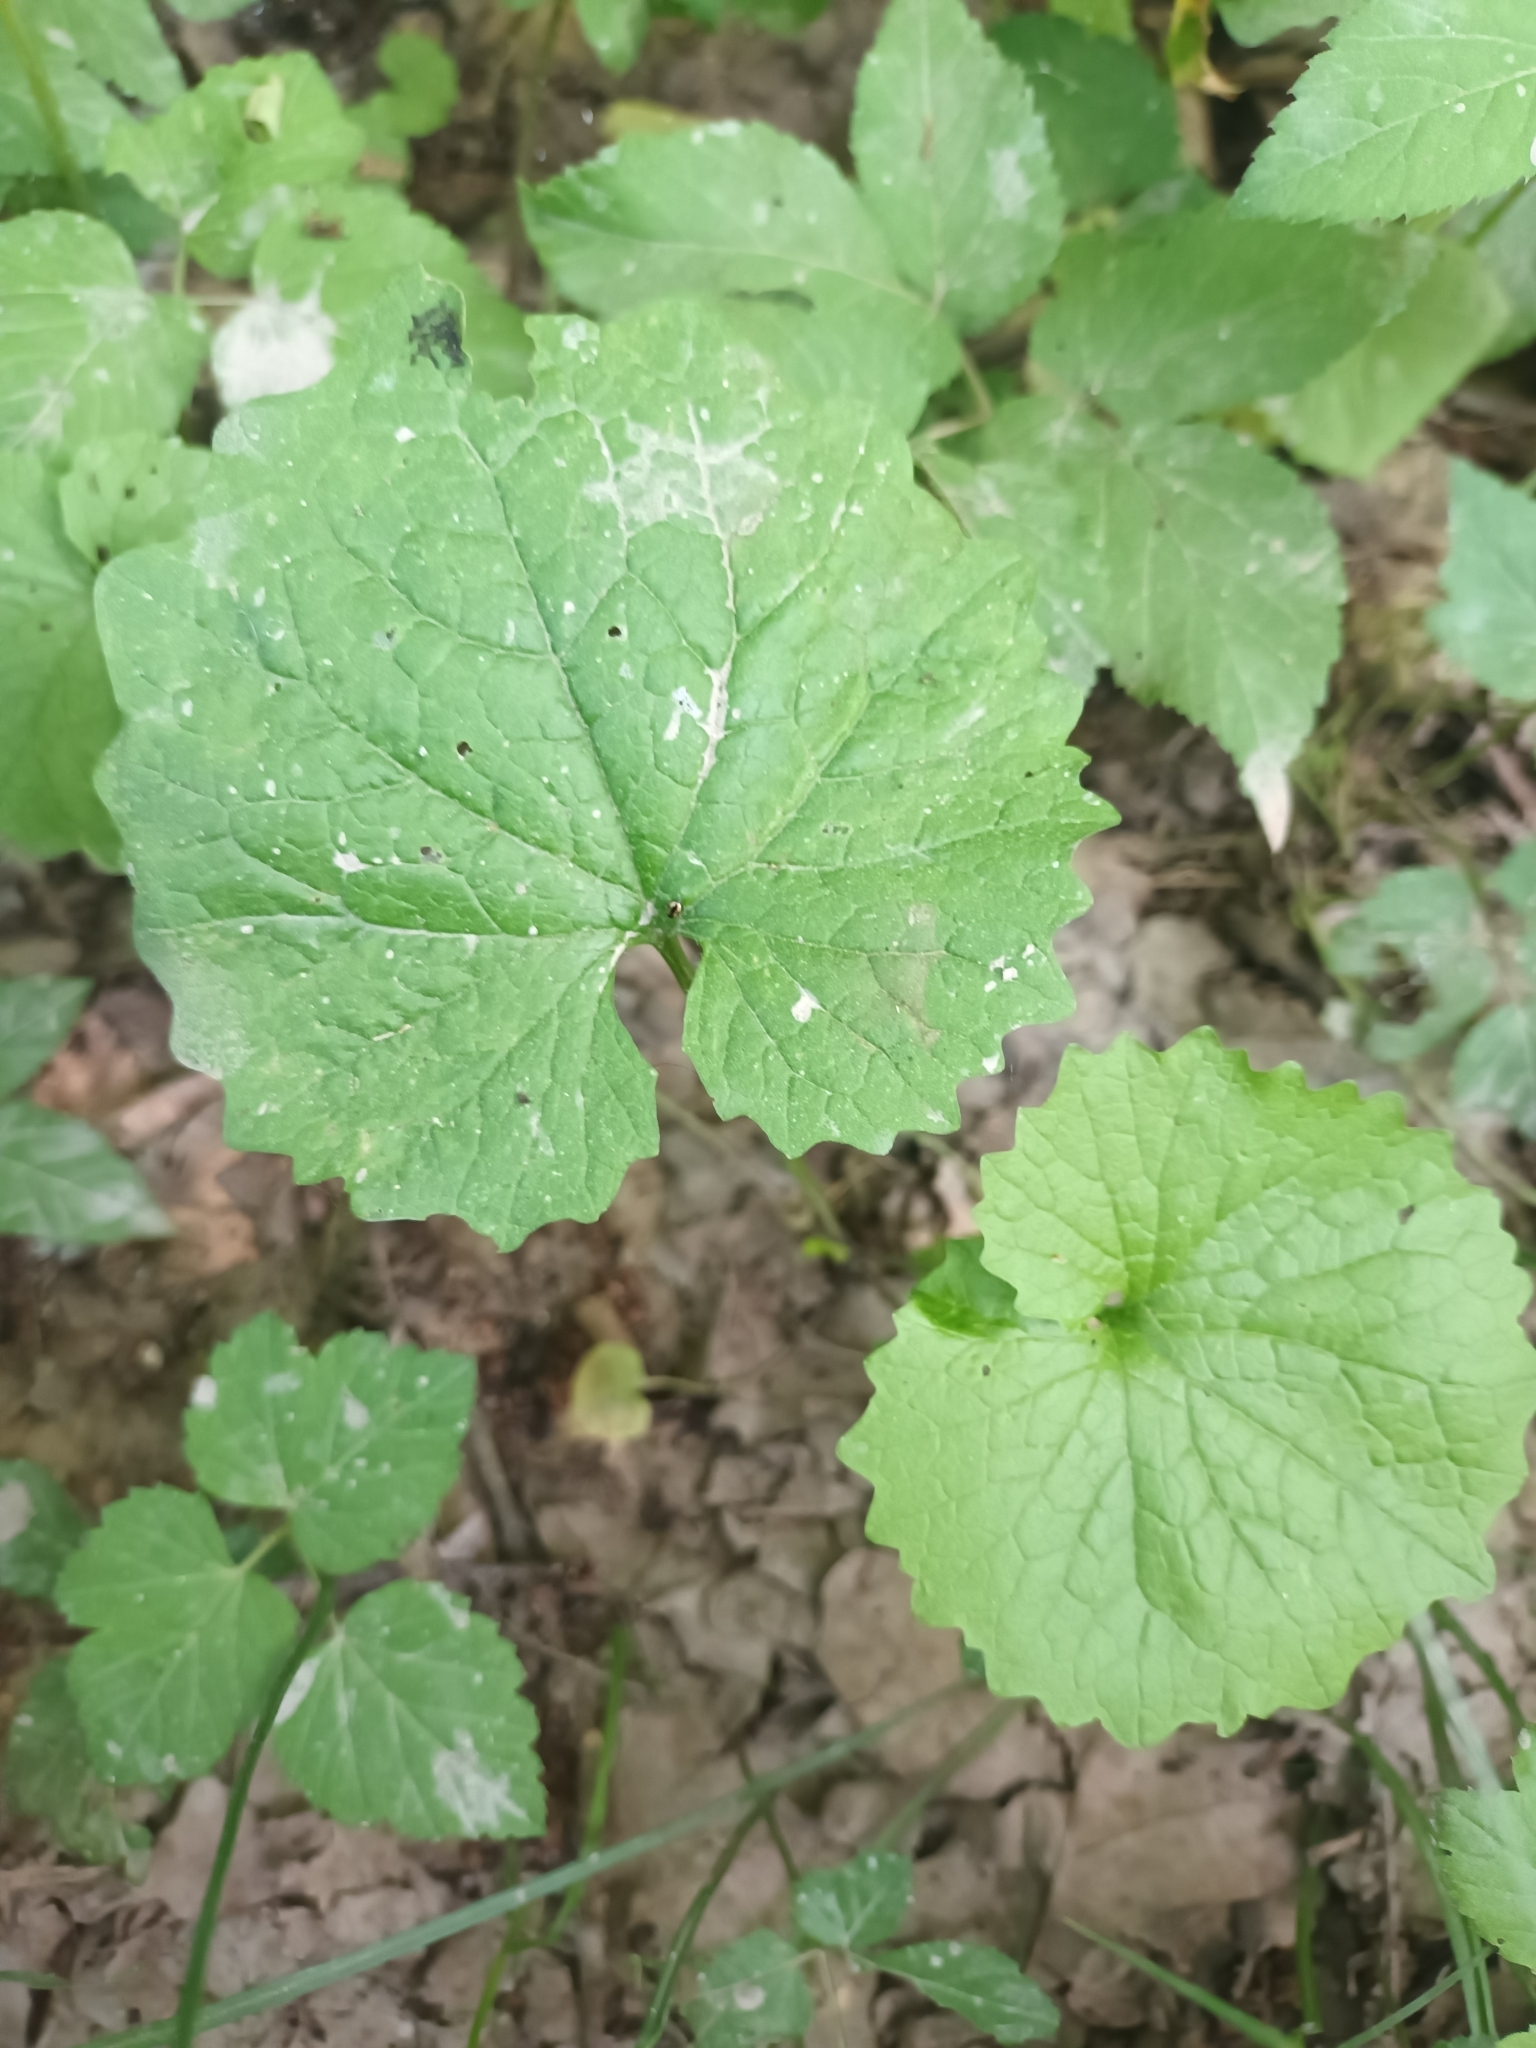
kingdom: Plantae
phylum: Tracheophyta
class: Magnoliopsida
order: Brassicales
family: Brassicaceae
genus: Alliaria
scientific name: Alliaria petiolata
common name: Garlic mustard
